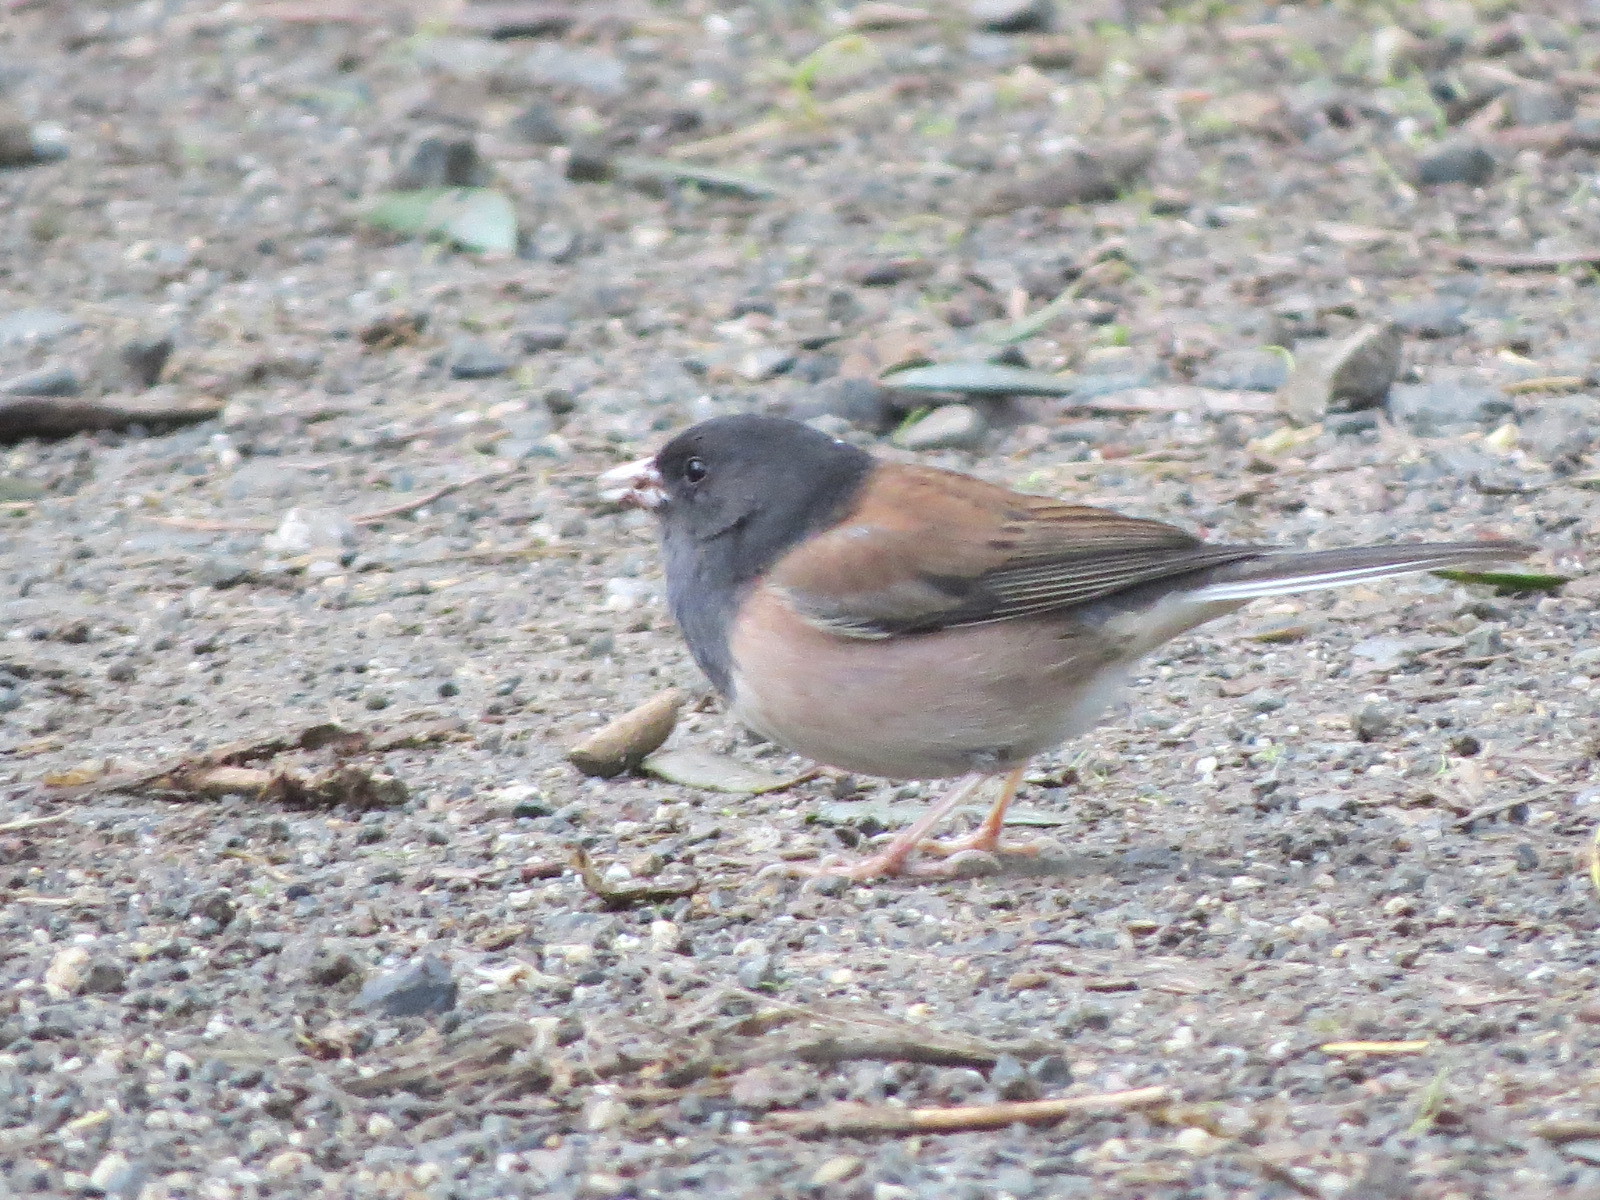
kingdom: Animalia
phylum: Chordata
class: Aves
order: Passeriformes
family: Passerellidae
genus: Junco
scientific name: Junco hyemalis
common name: Dark-eyed junco
